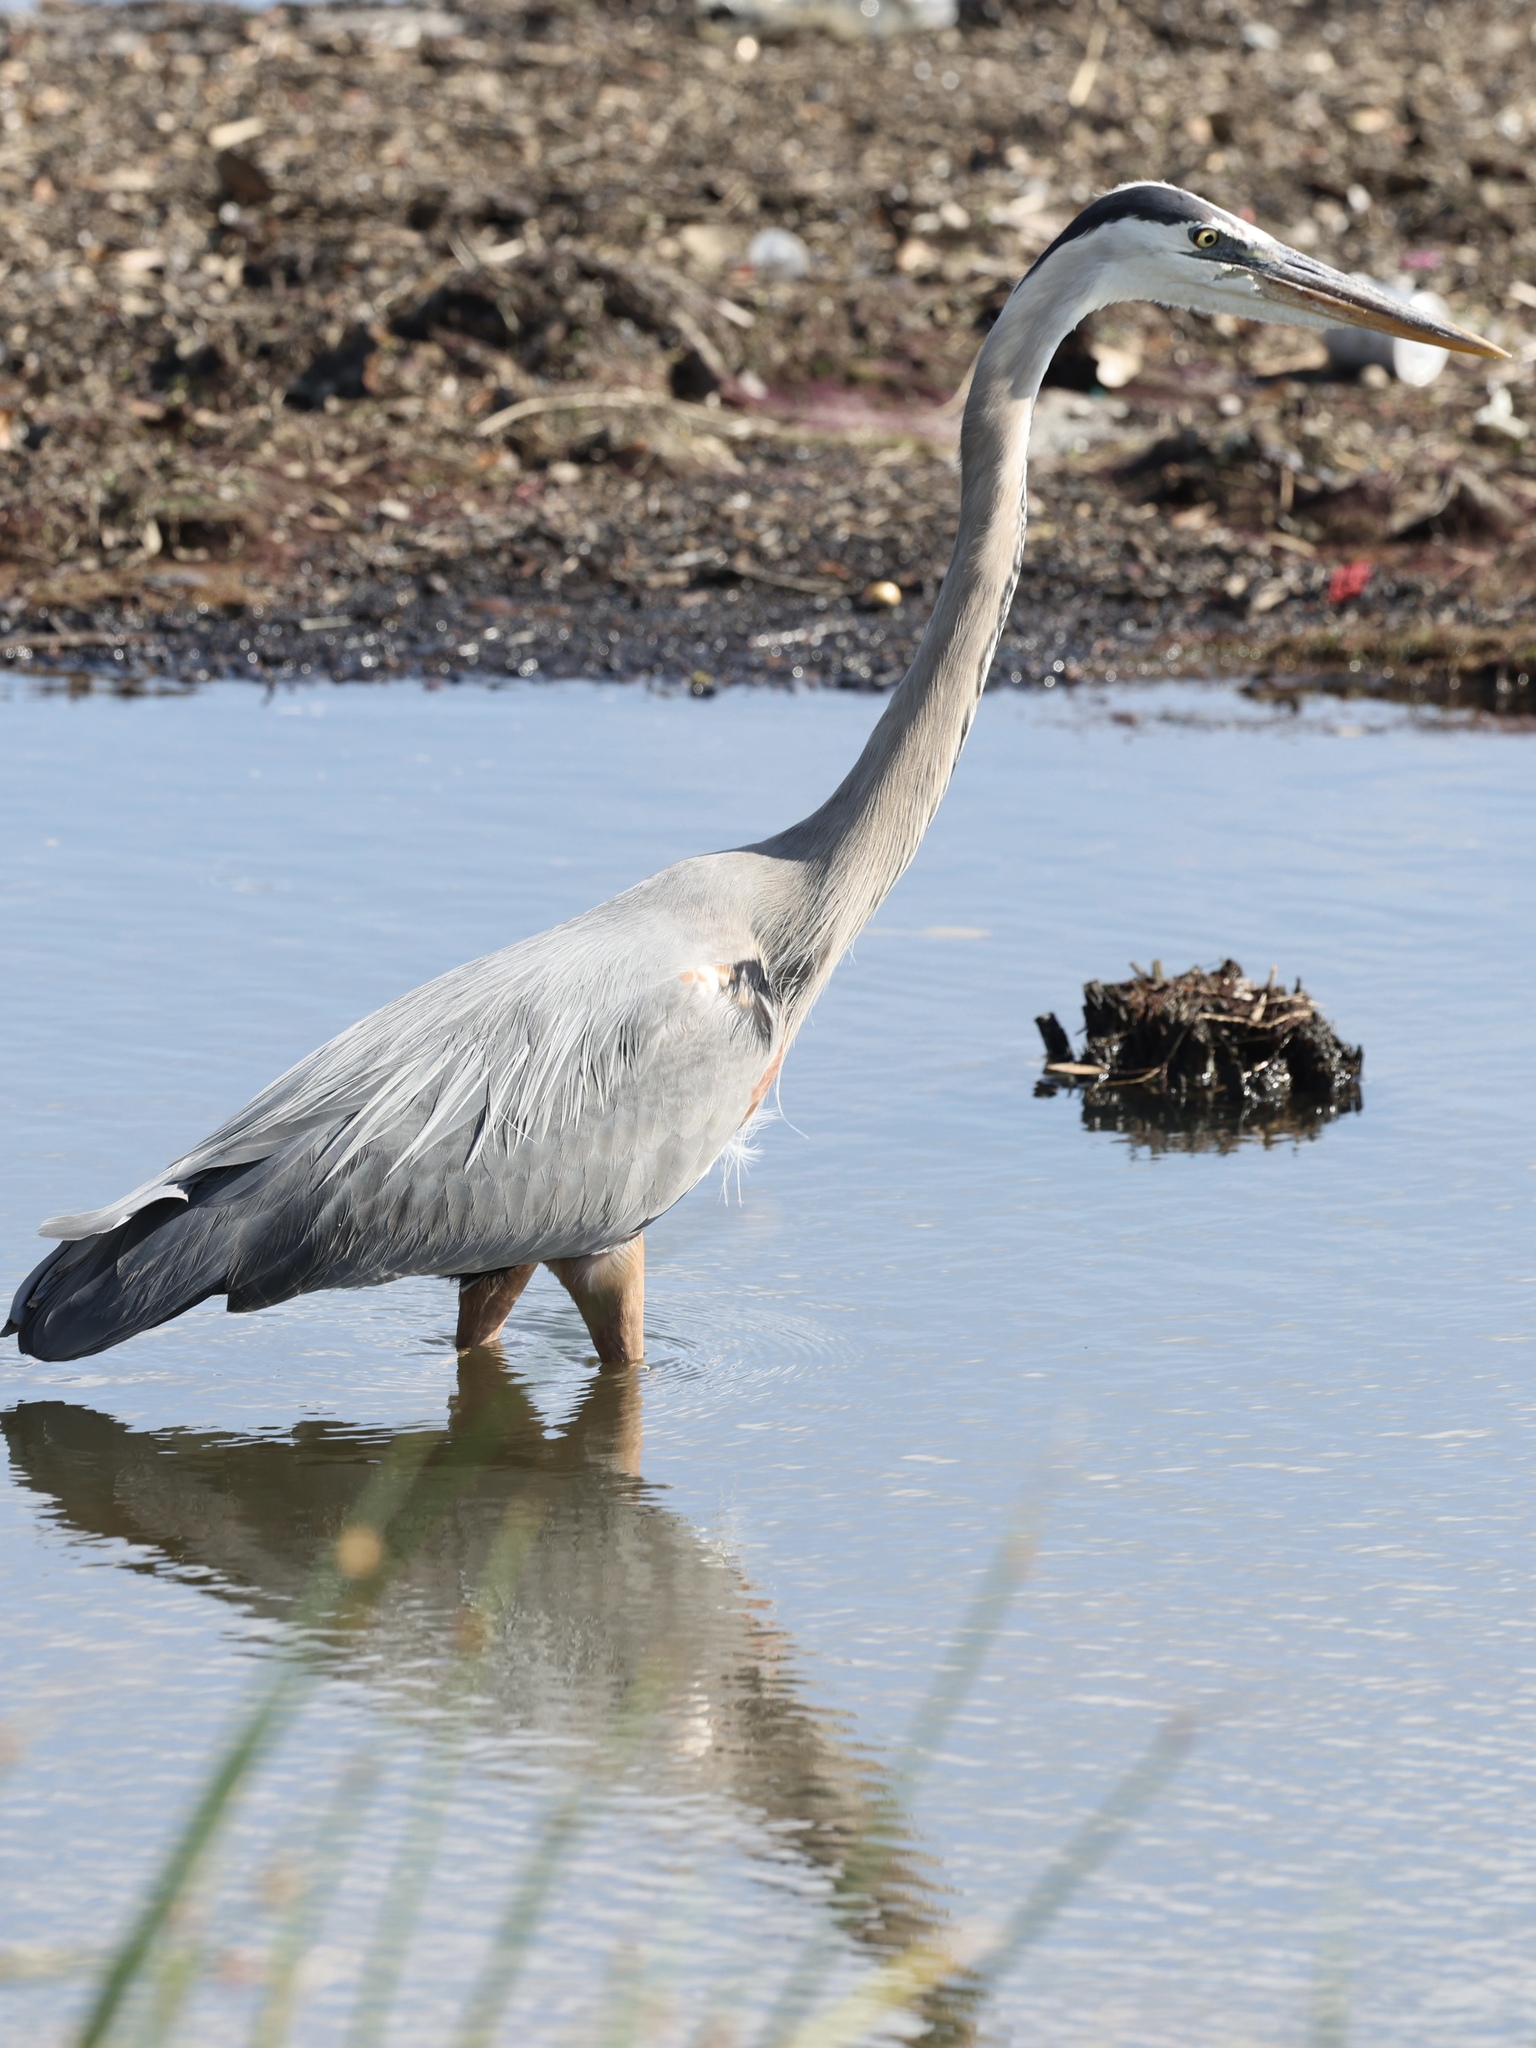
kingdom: Animalia
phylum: Chordata
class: Aves
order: Pelecaniformes
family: Ardeidae
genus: Ardea
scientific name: Ardea herodias
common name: Great blue heron
